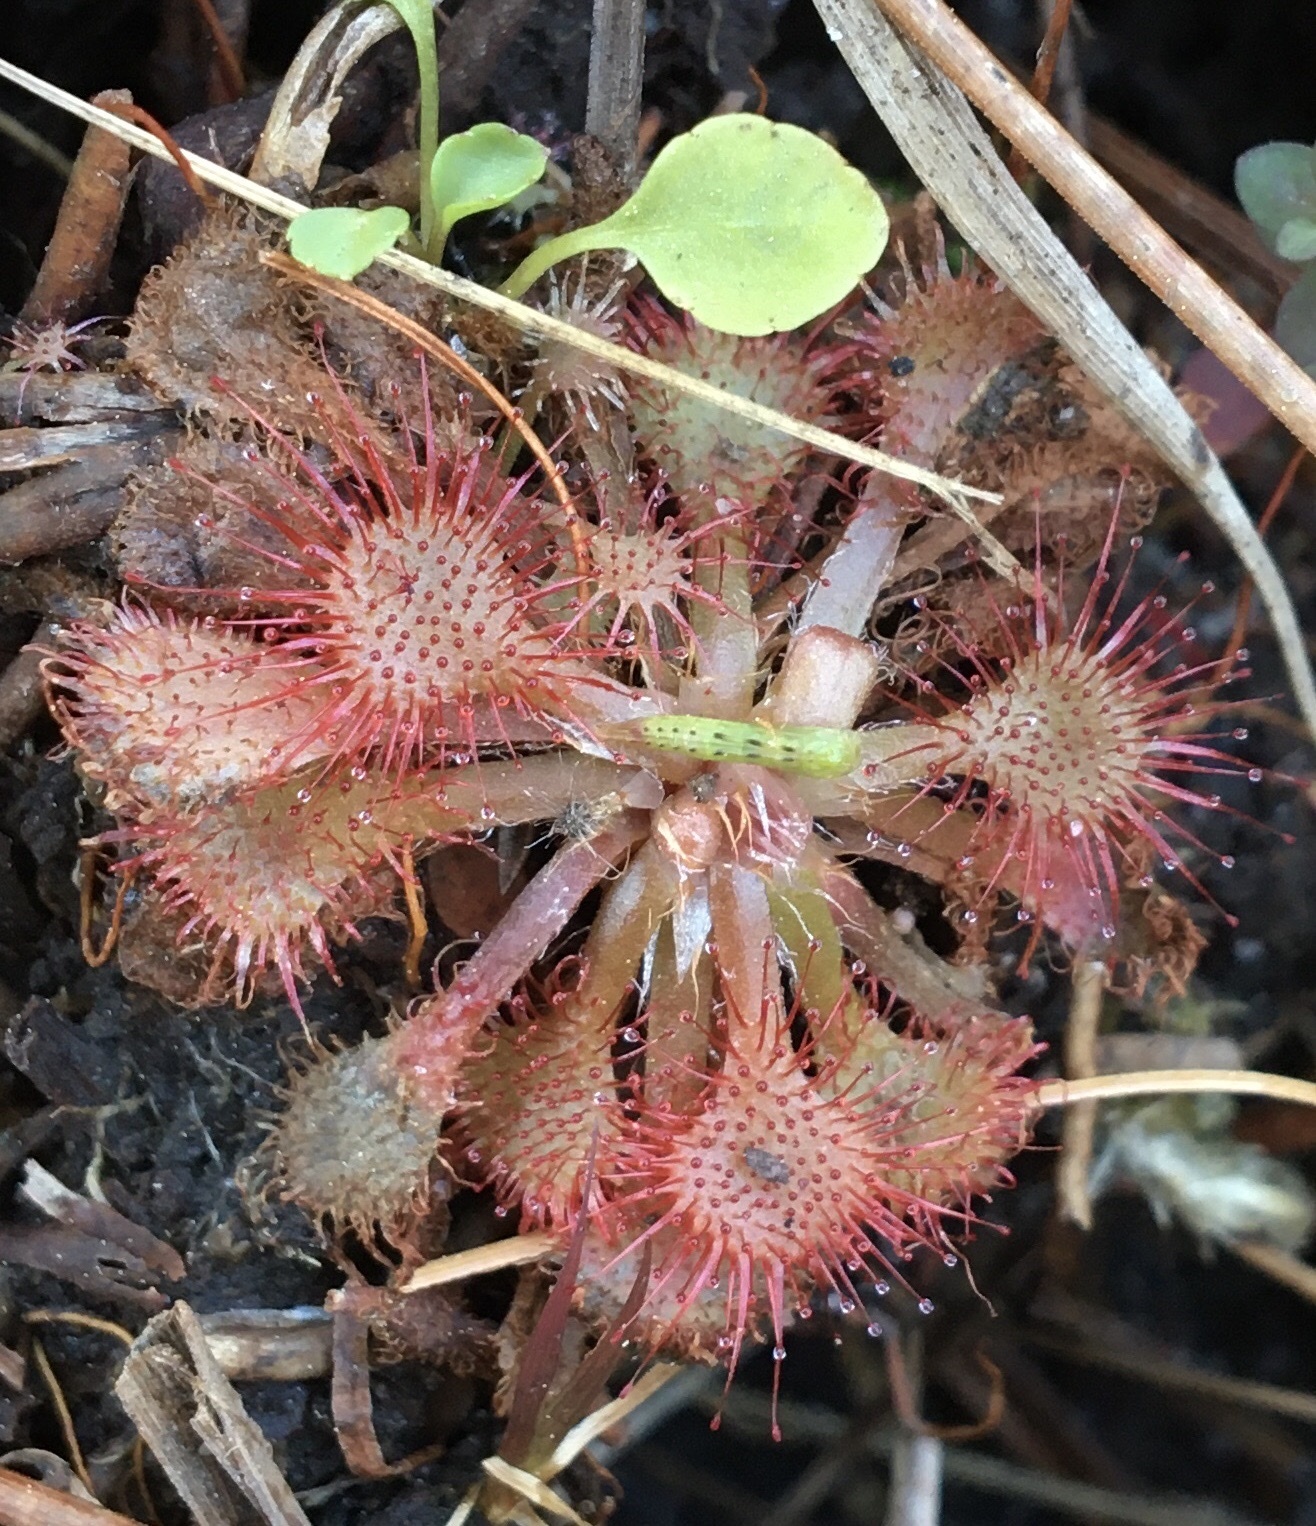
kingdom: Plantae
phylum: Tracheophyta
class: Magnoliopsida
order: Caryophyllales
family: Droseraceae
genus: Drosera
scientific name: Drosera capillaris
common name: Pink sundew
